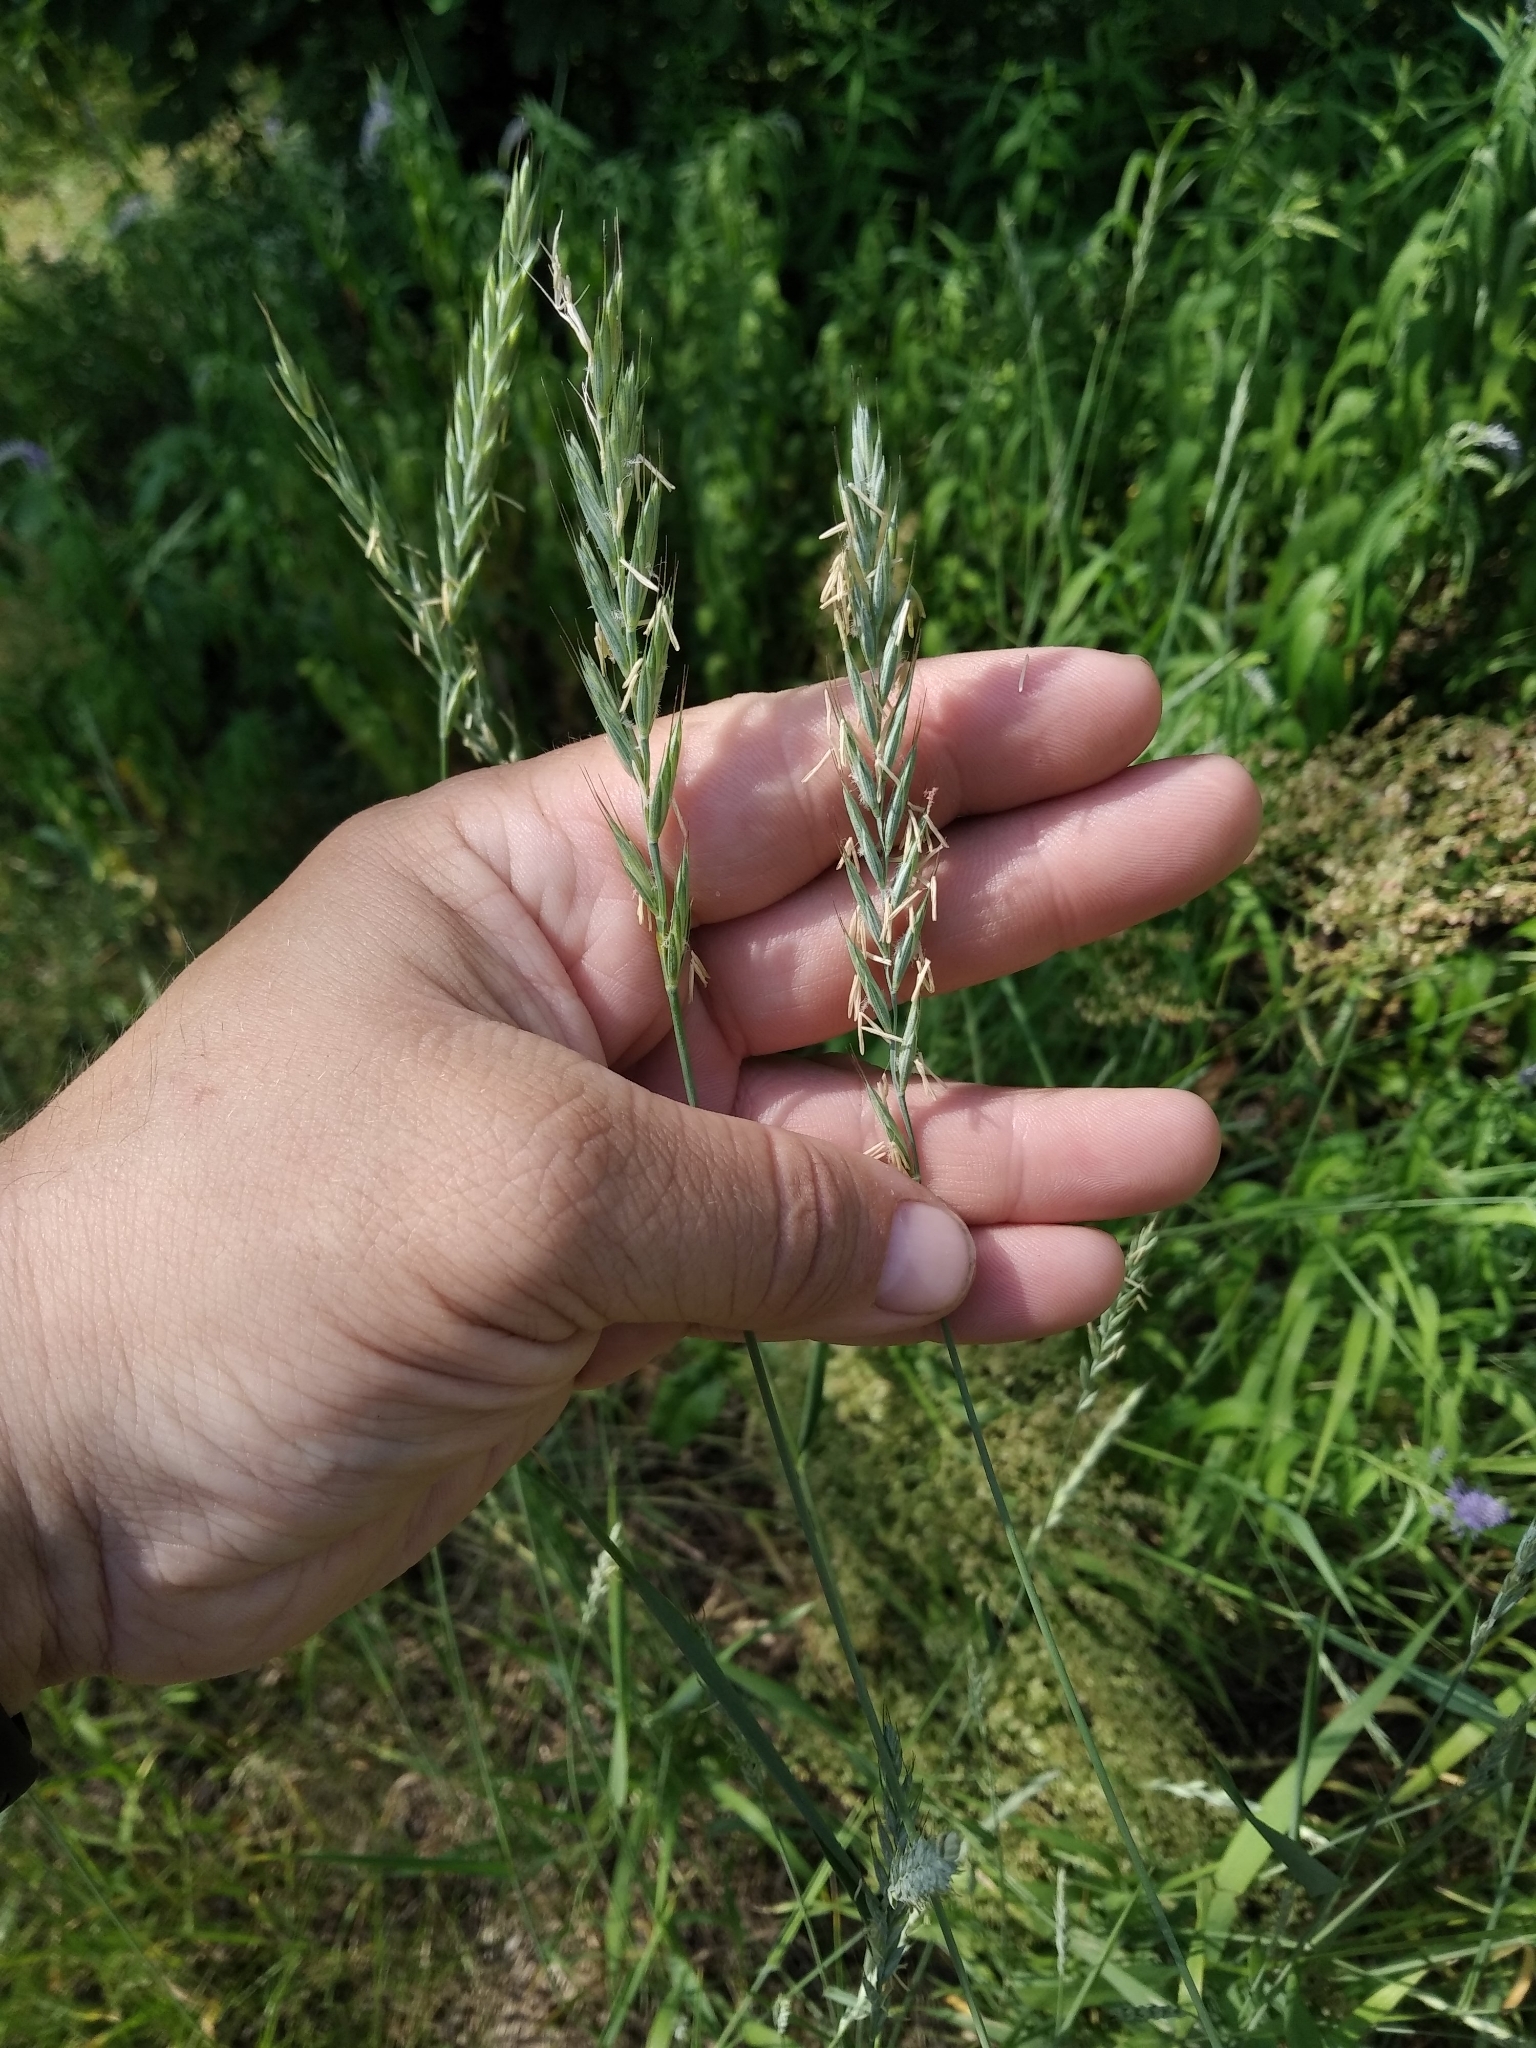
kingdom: Plantae
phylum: Tracheophyta
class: Liliopsida
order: Poales
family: Poaceae
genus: Elymus
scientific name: Elymus repens
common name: Quackgrass
